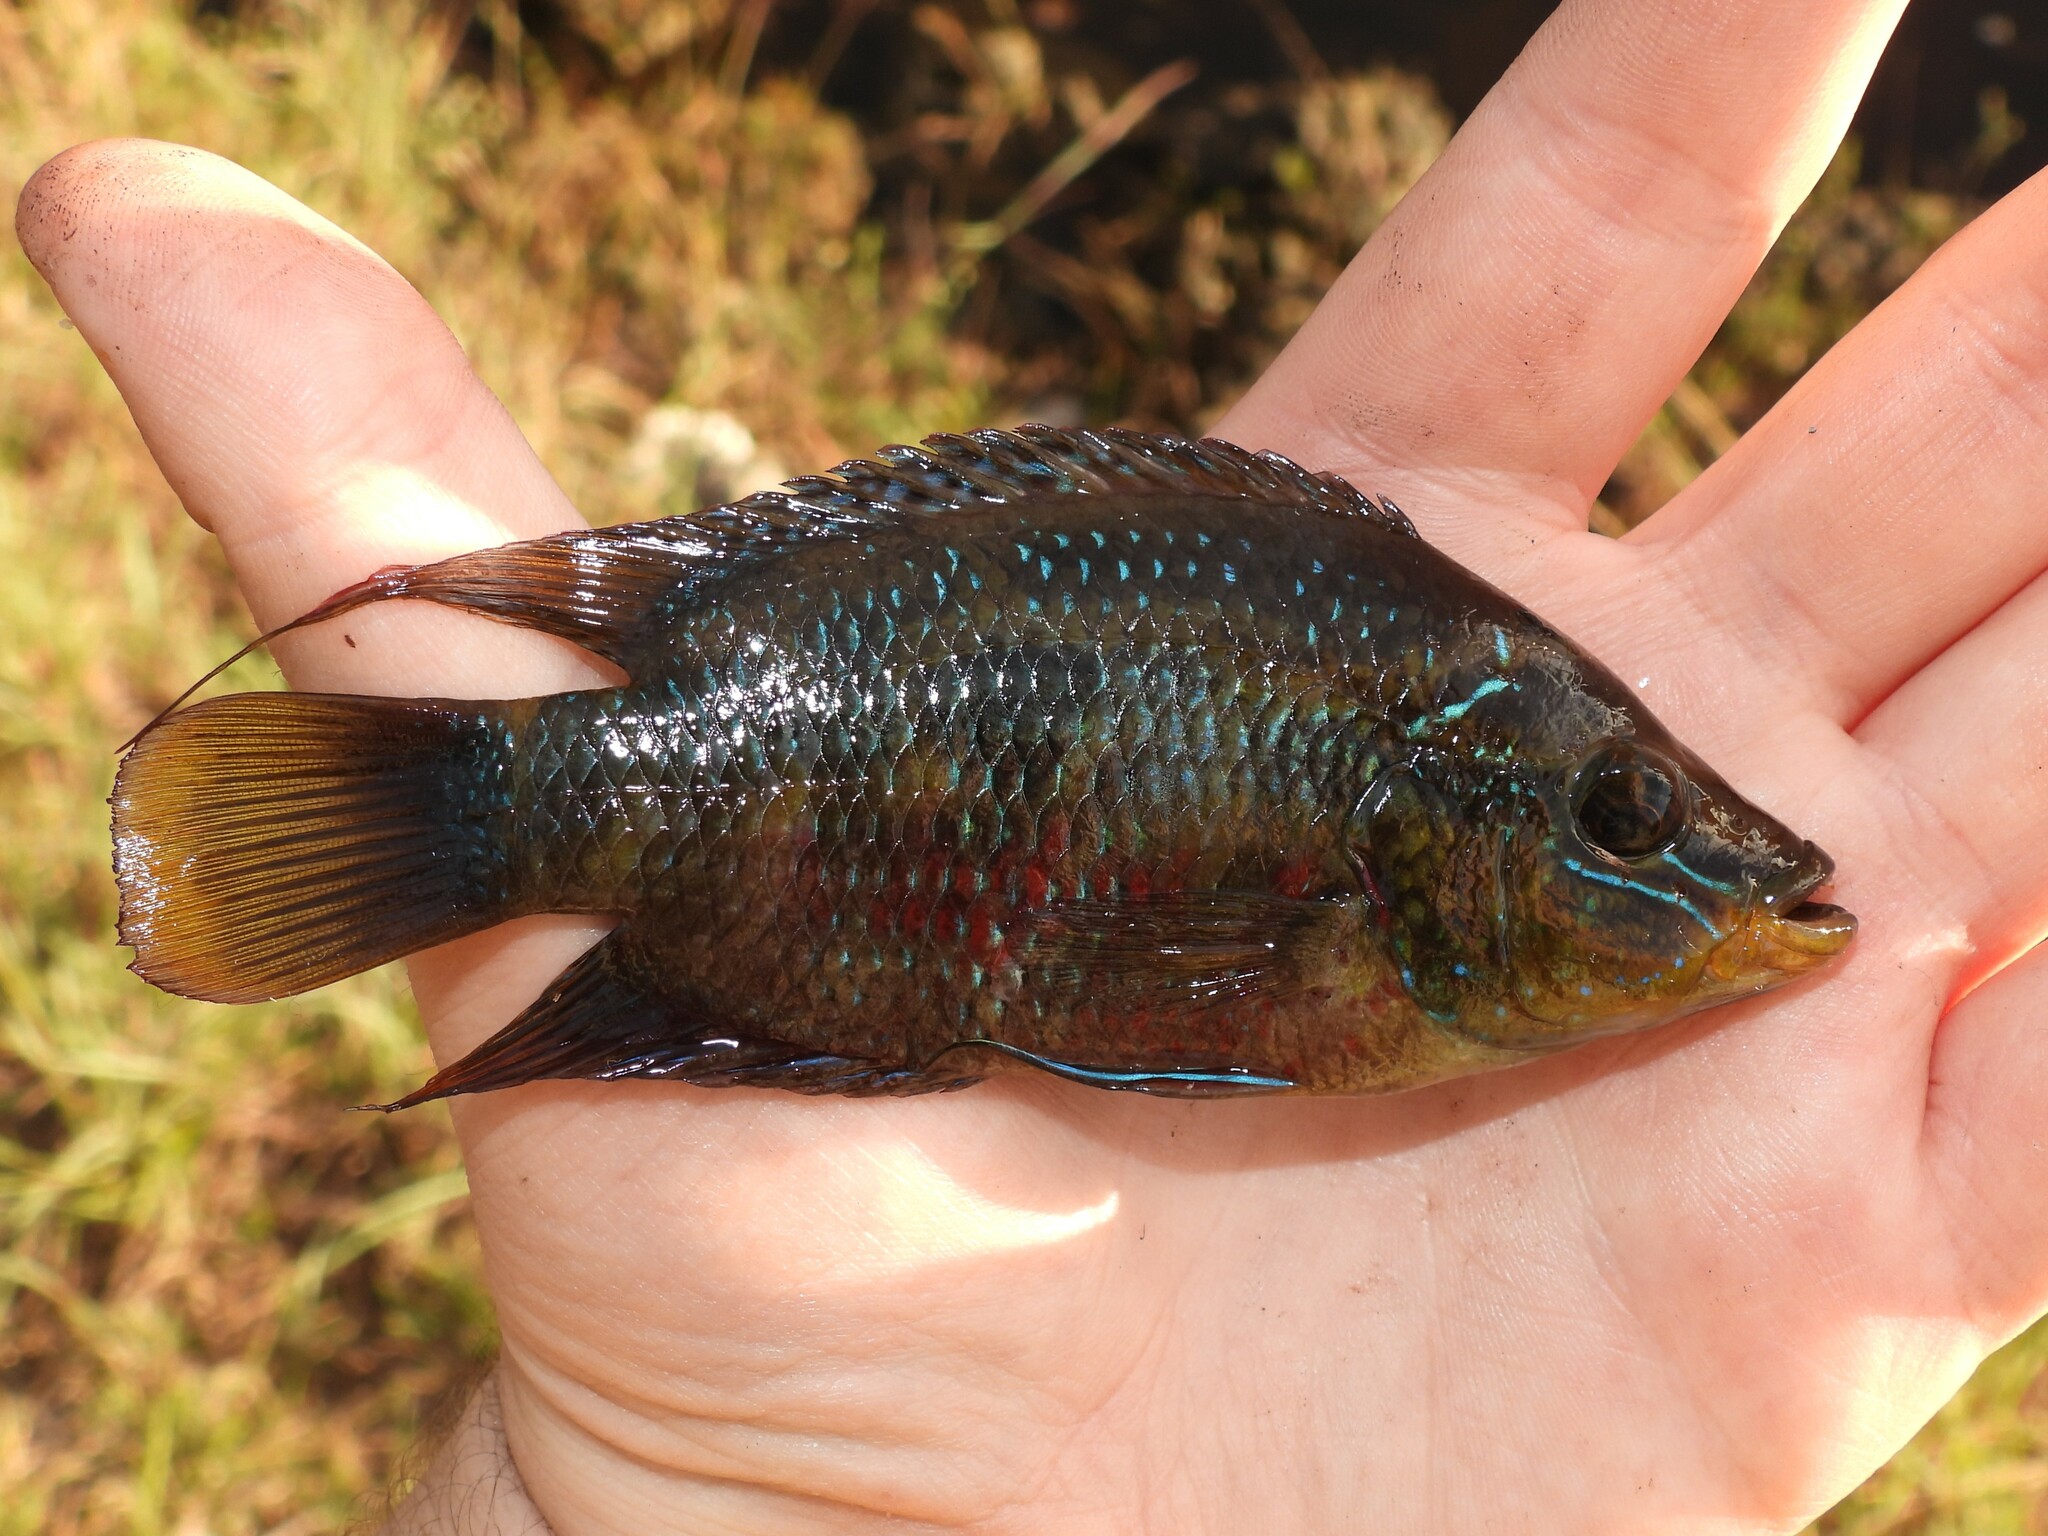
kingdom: Animalia
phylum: Chordata
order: Perciformes
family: Cichlidae
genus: Trichromis
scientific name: Trichromis salvini
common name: Yellow belly cichlid
